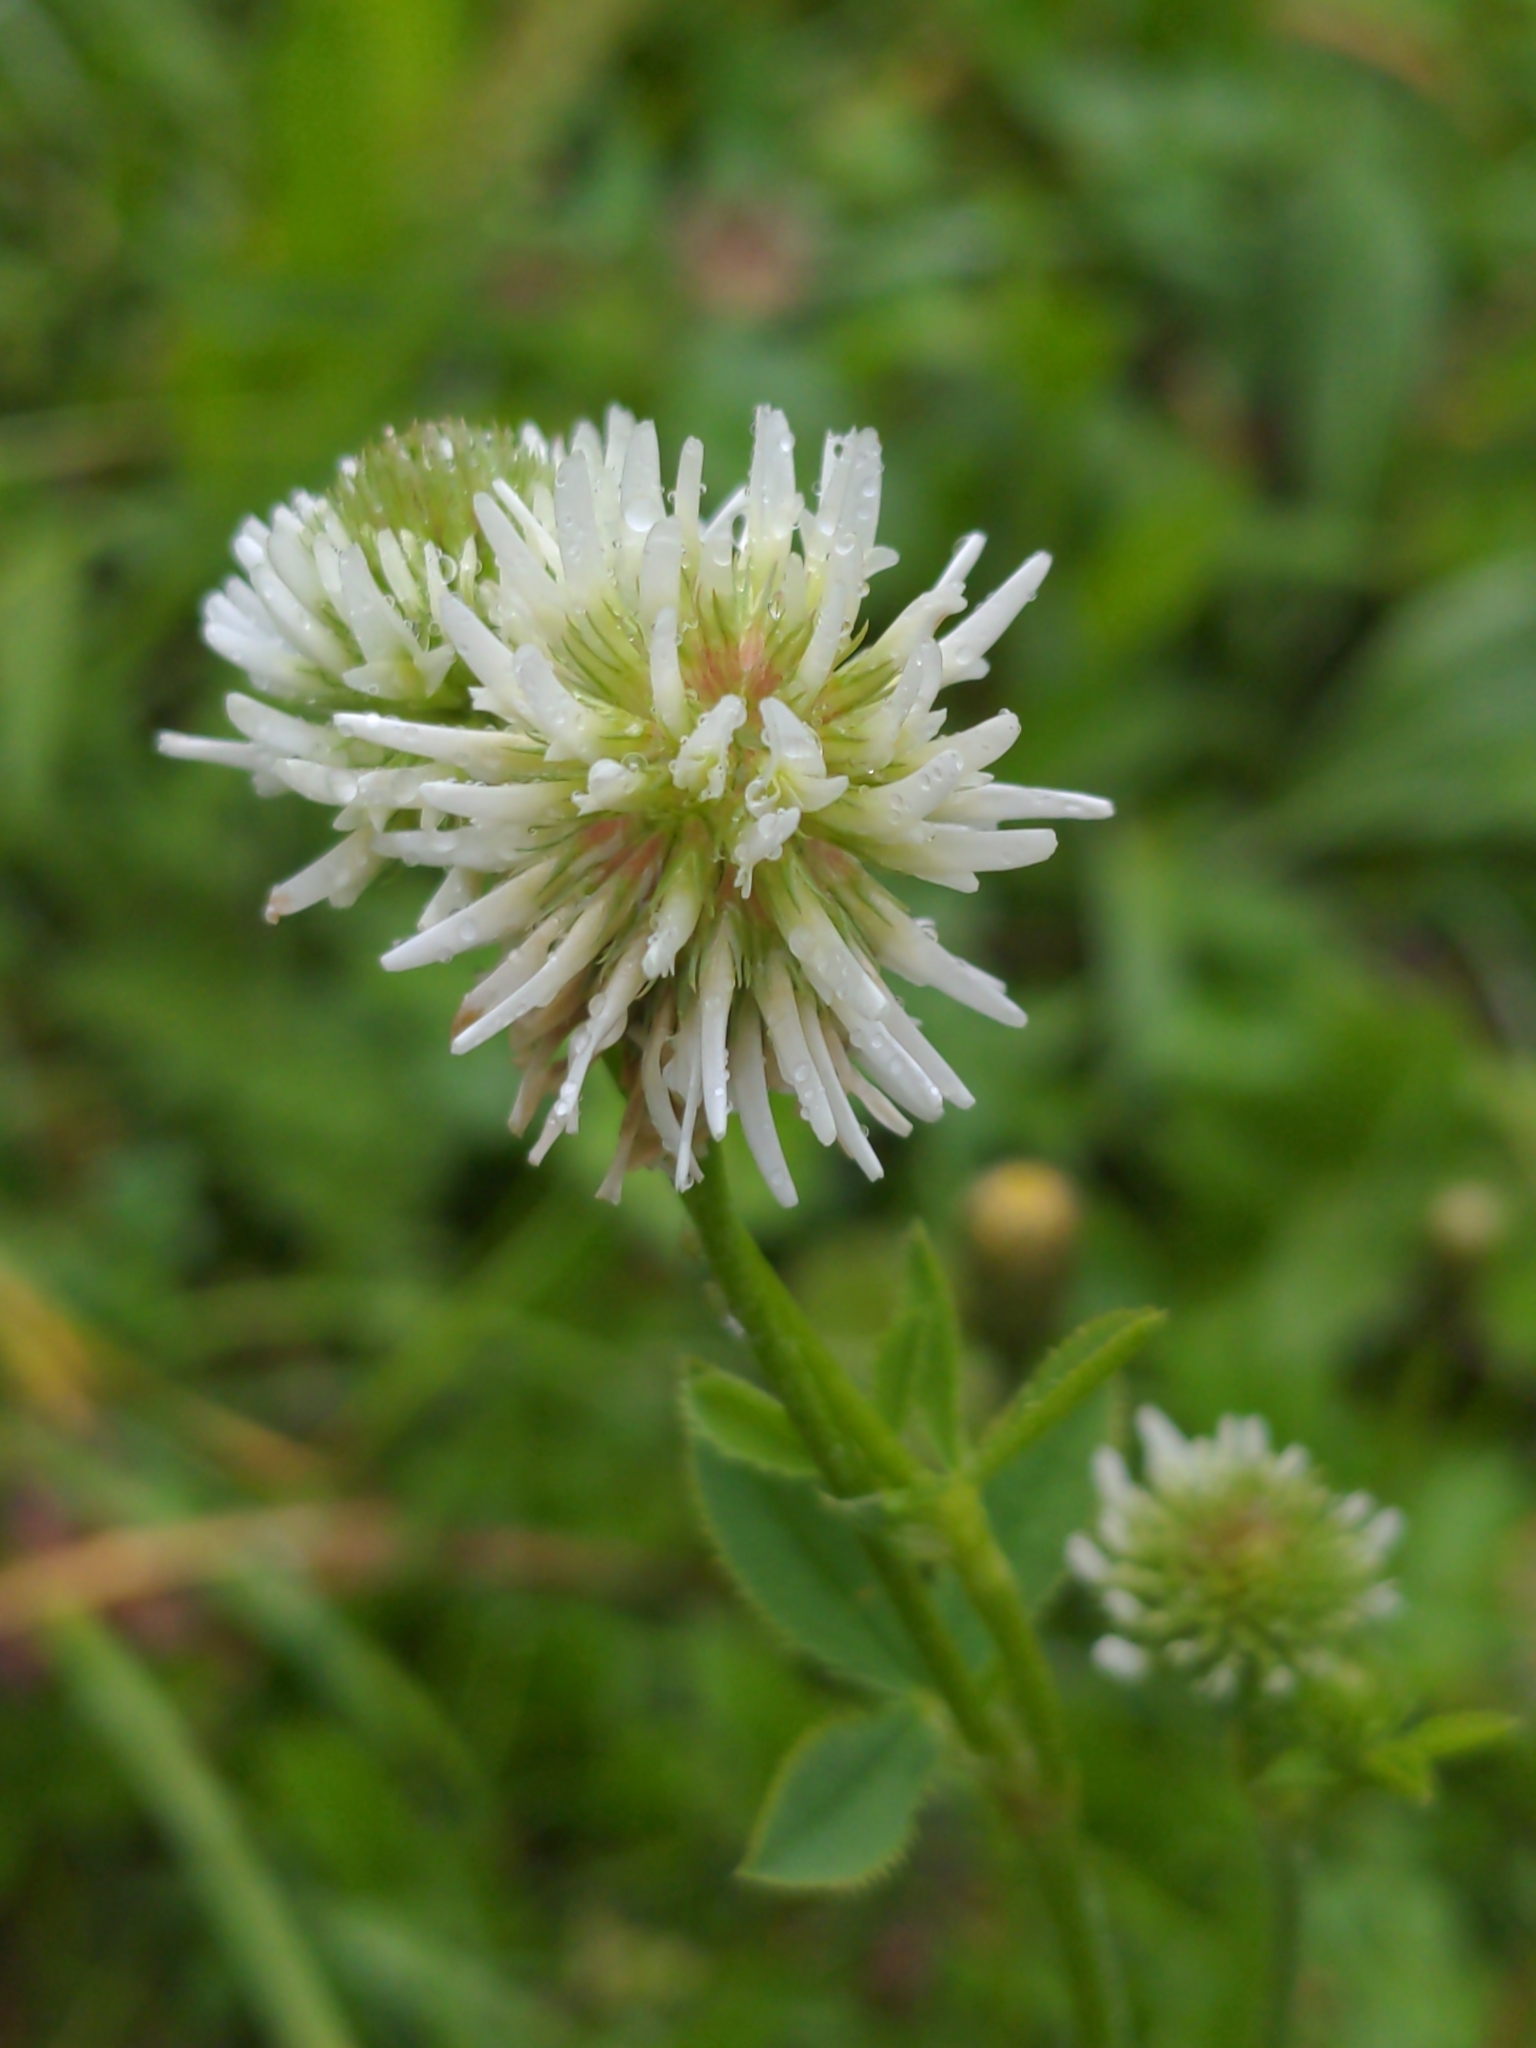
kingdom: Plantae
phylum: Tracheophyta
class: Magnoliopsida
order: Fabales
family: Fabaceae
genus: Trifolium
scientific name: Trifolium montanum
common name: Mountain clover
